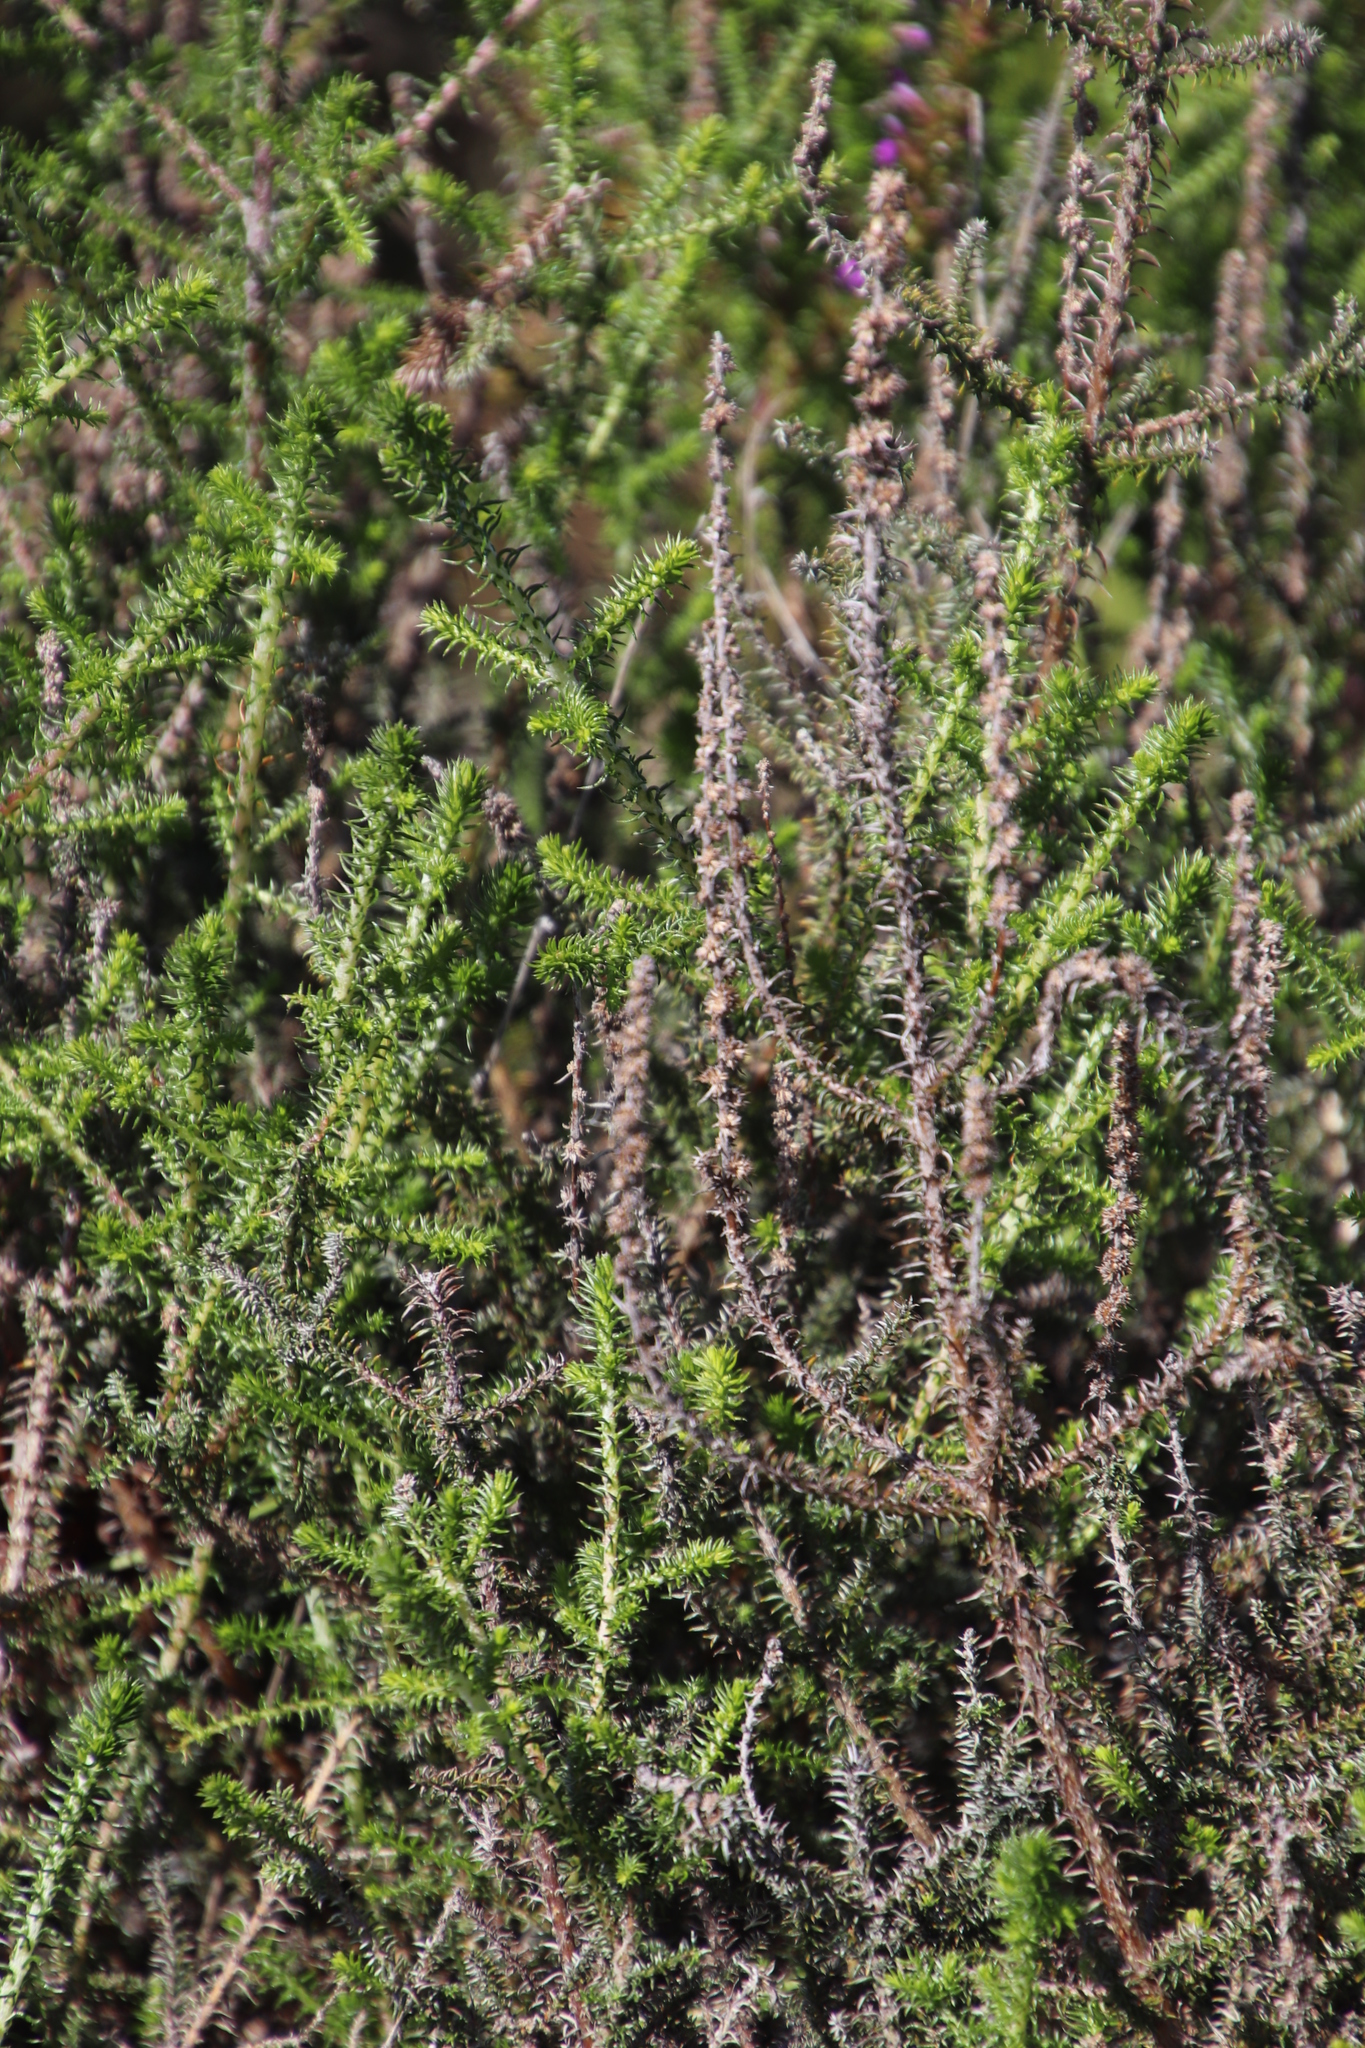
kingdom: Plantae
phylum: Tracheophyta
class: Magnoliopsida
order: Asterales
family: Asteraceae
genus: Seriphium
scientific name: Seriphium cinereum
